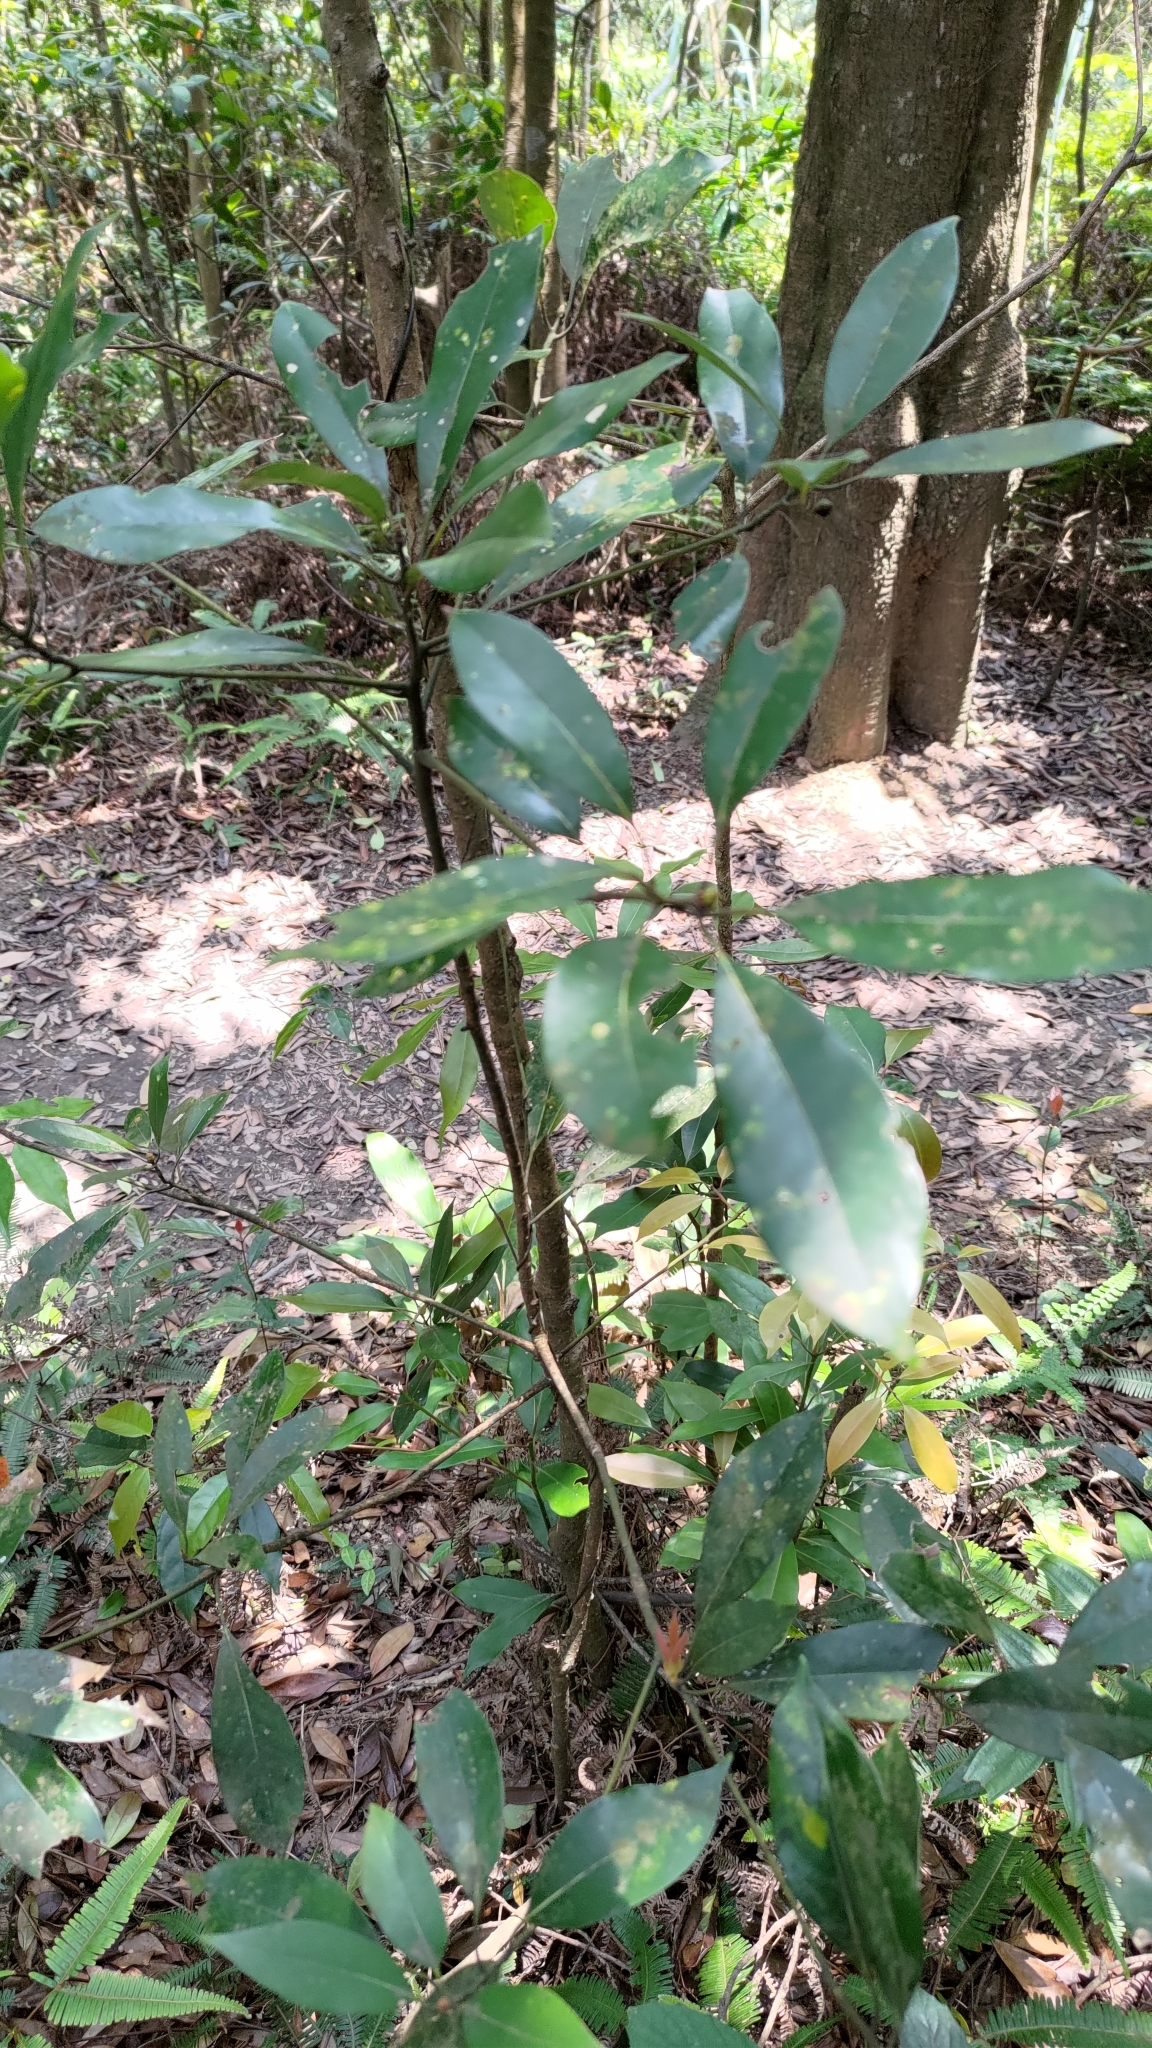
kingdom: Plantae
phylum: Tracheophyta
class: Magnoliopsida
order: Laurales
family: Lauraceae
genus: Machilus
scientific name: Machilus thunbergii
